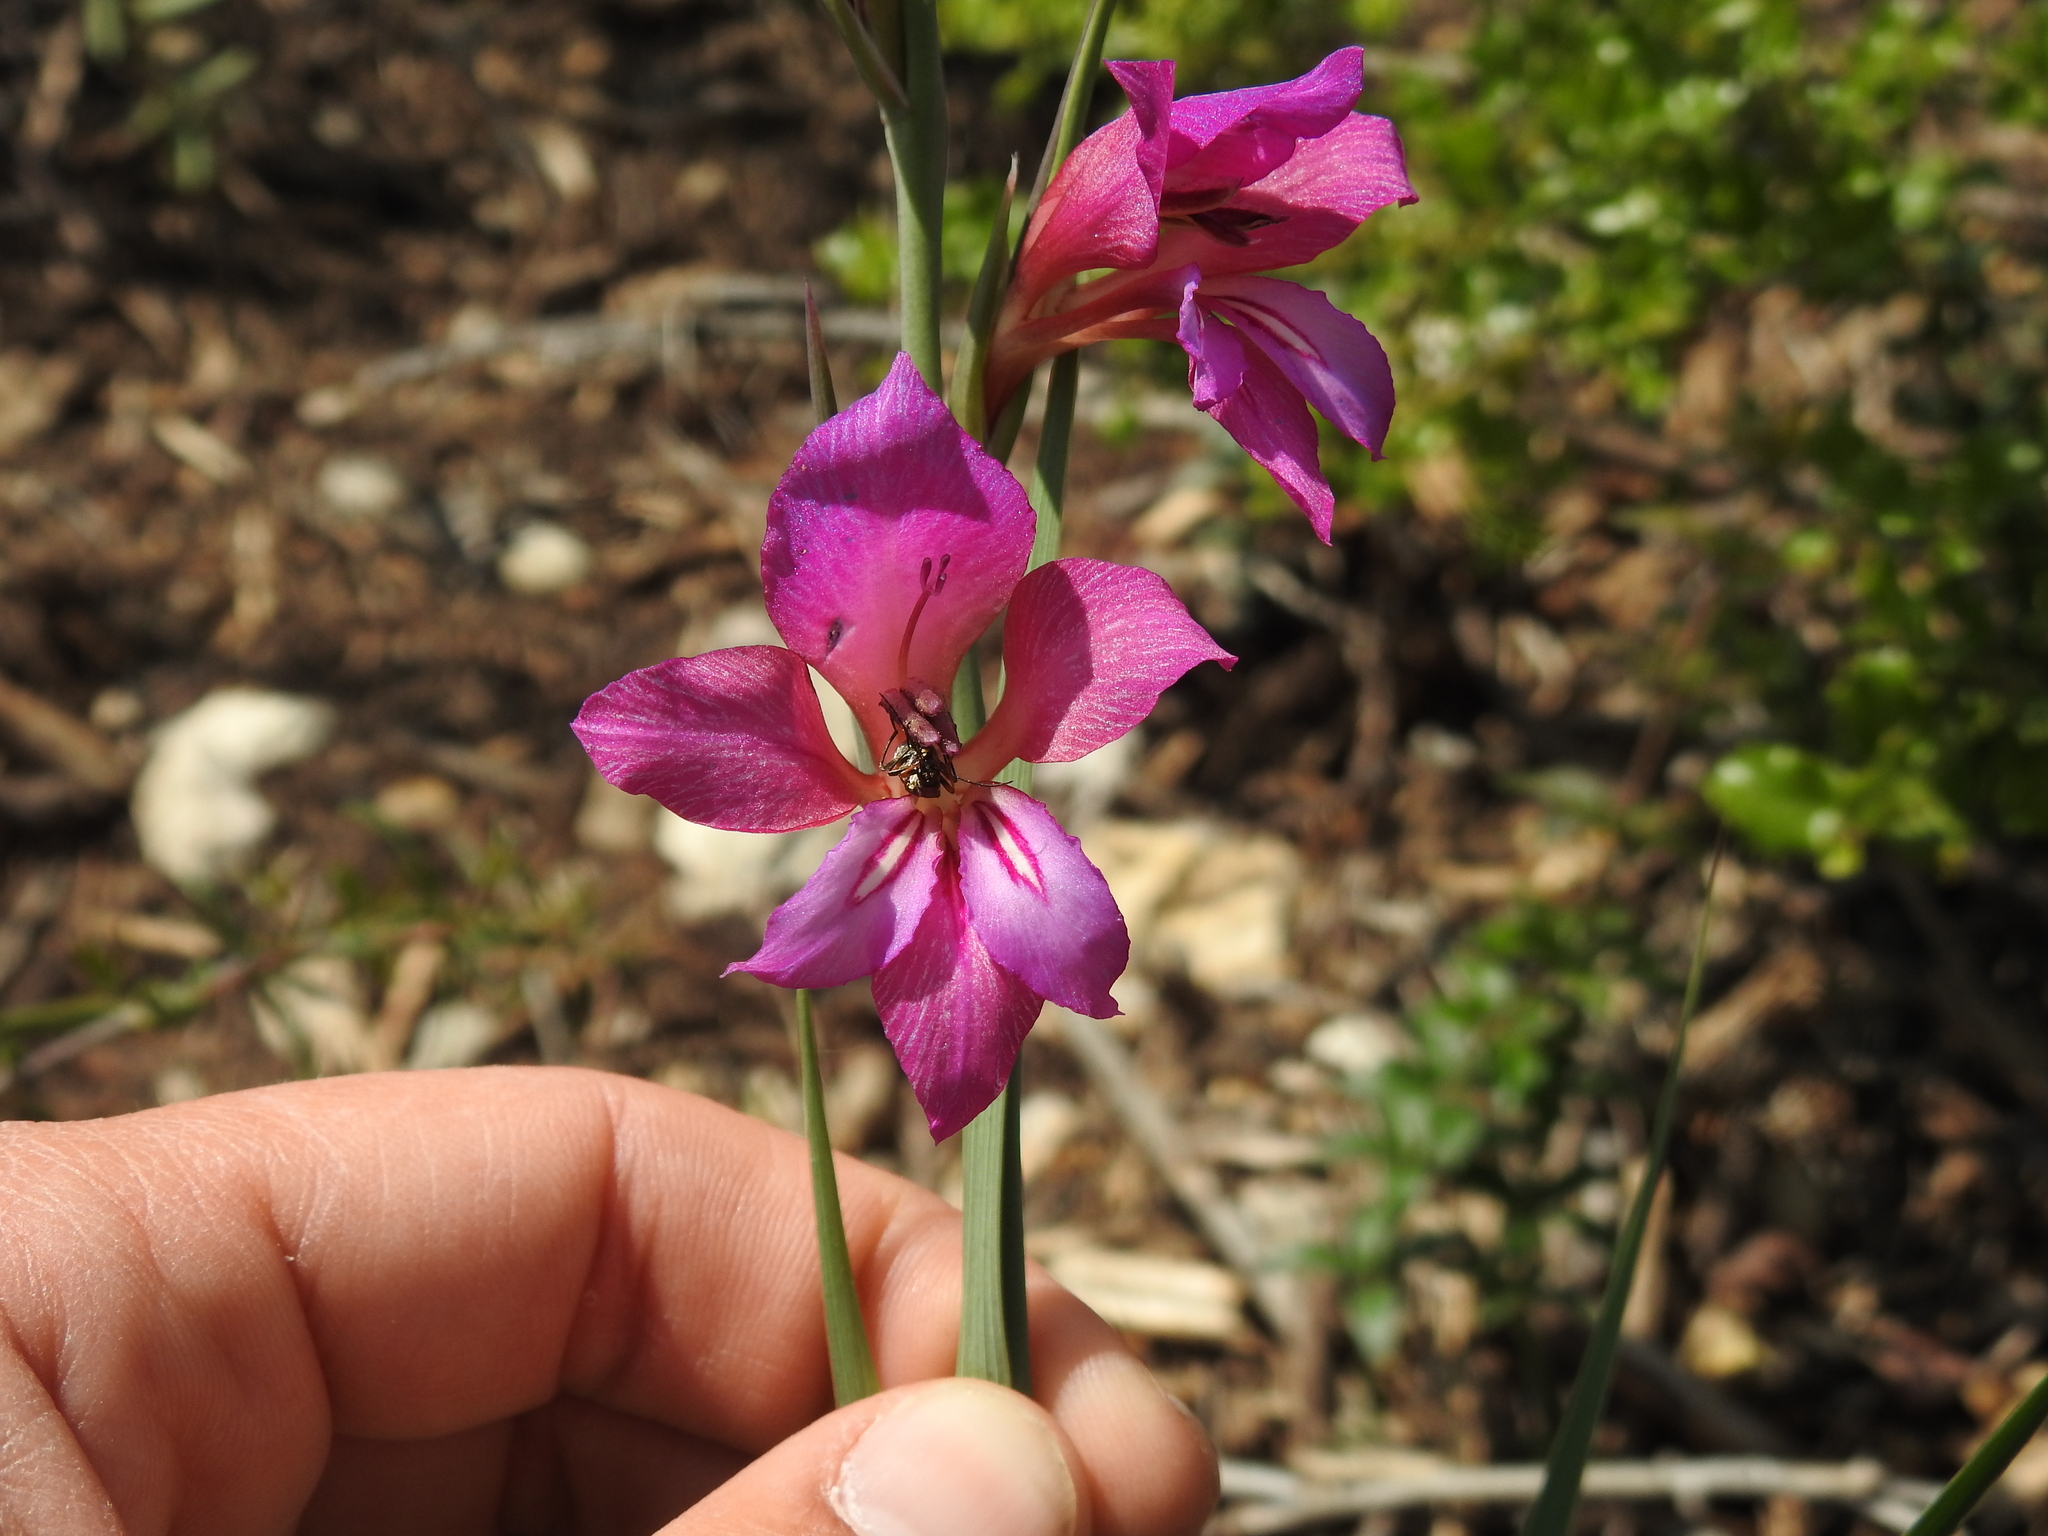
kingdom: Plantae
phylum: Tracheophyta
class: Liliopsida
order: Asparagales
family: Iridaceae
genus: Gladiolus
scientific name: Gladiolus dubius
